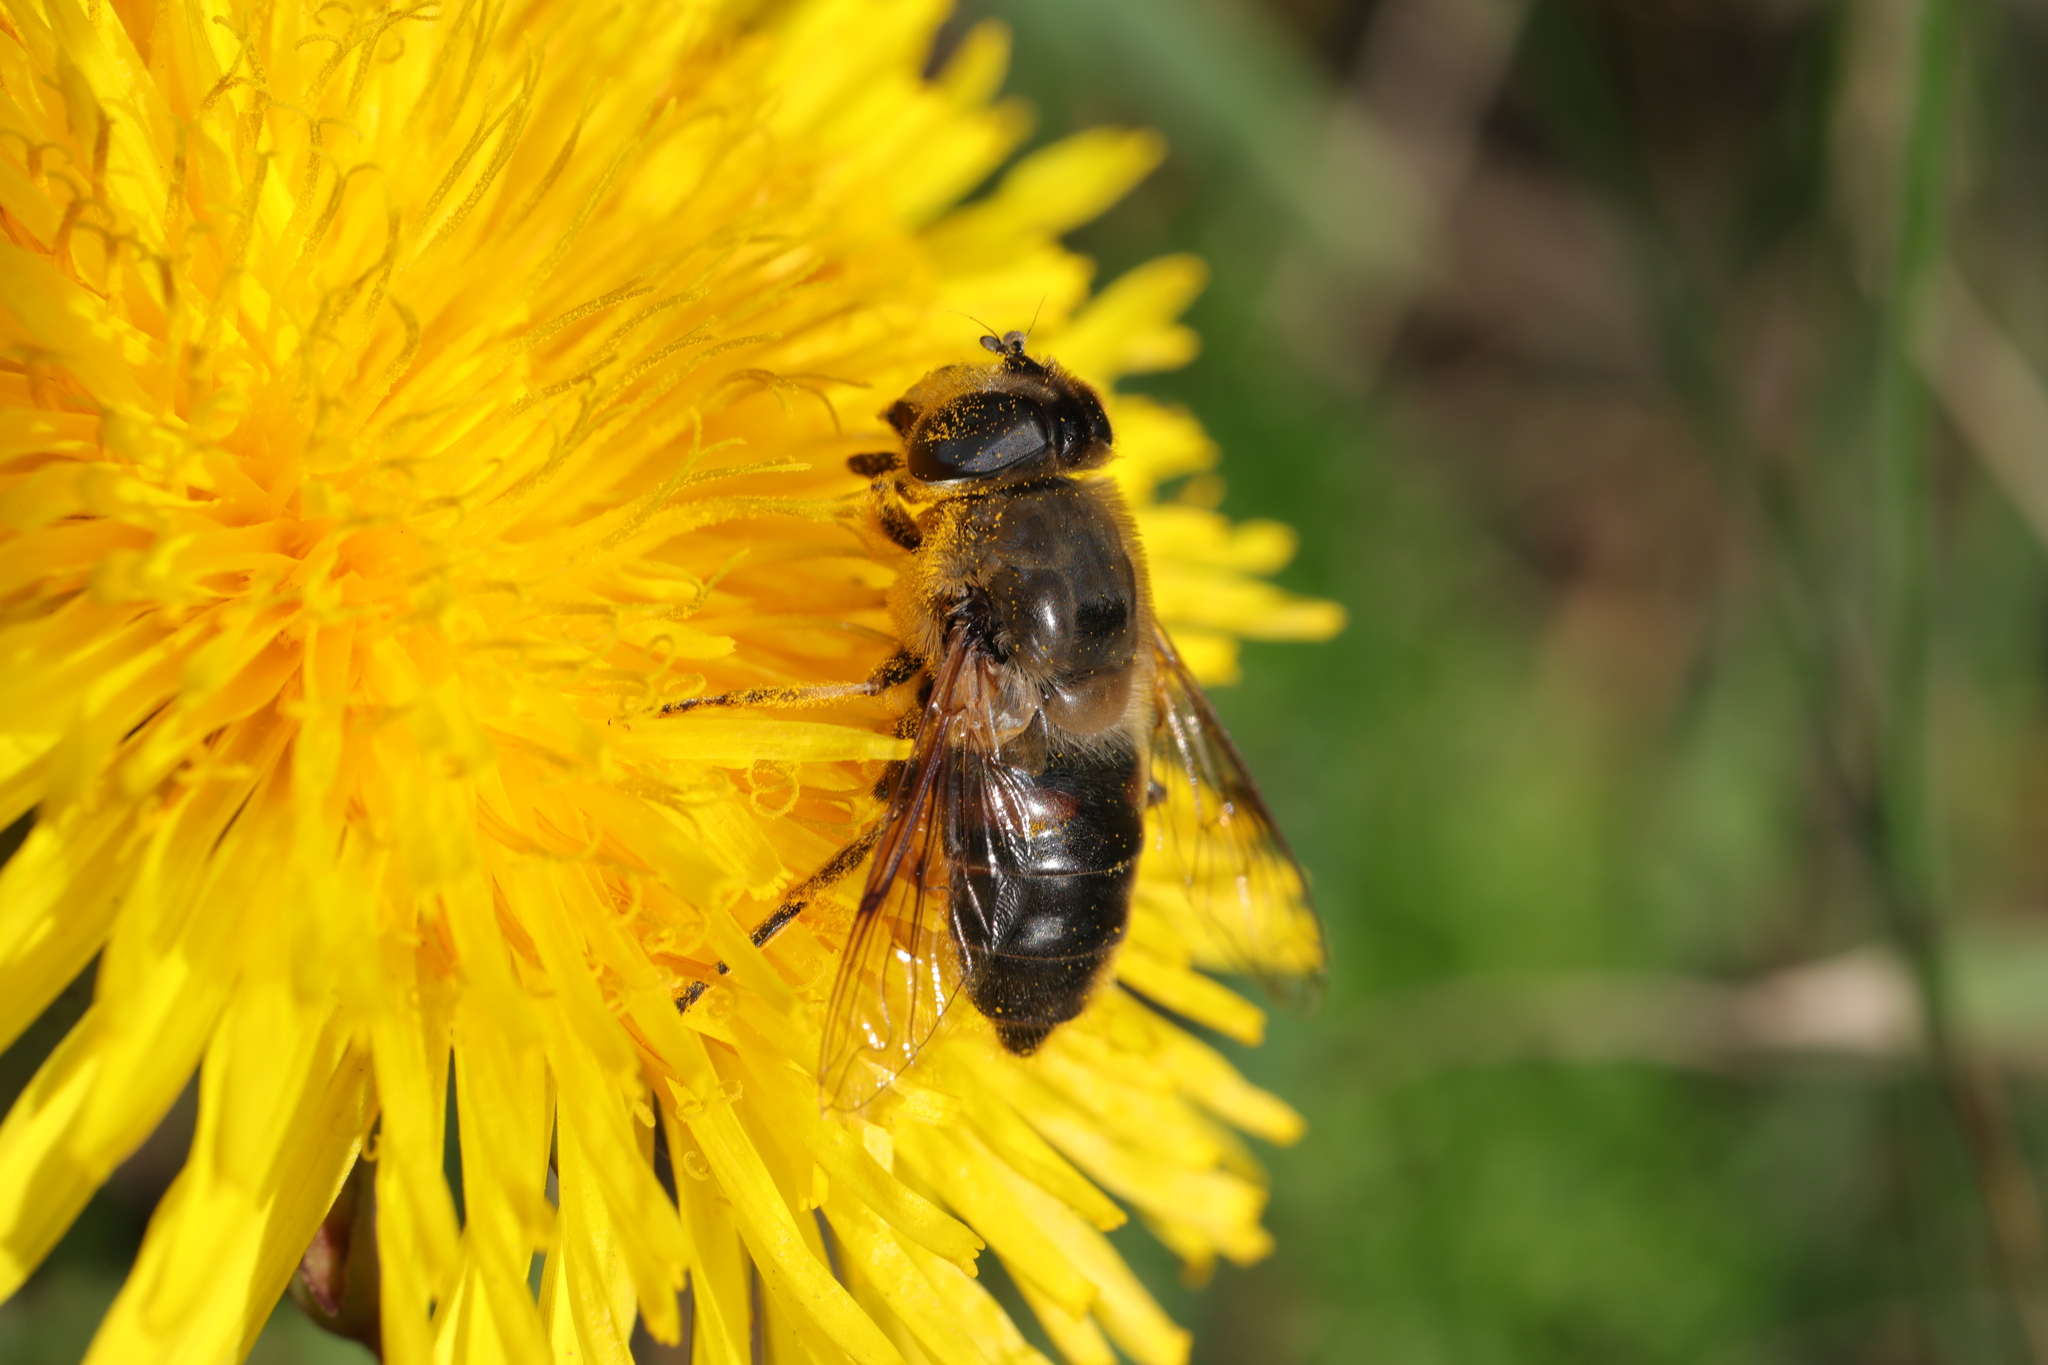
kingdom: Animalia
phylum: Arthropoda
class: Insecta
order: Diptera
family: Syrphidae
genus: Eristalis
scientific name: Eristalis tenax
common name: Drone fly
